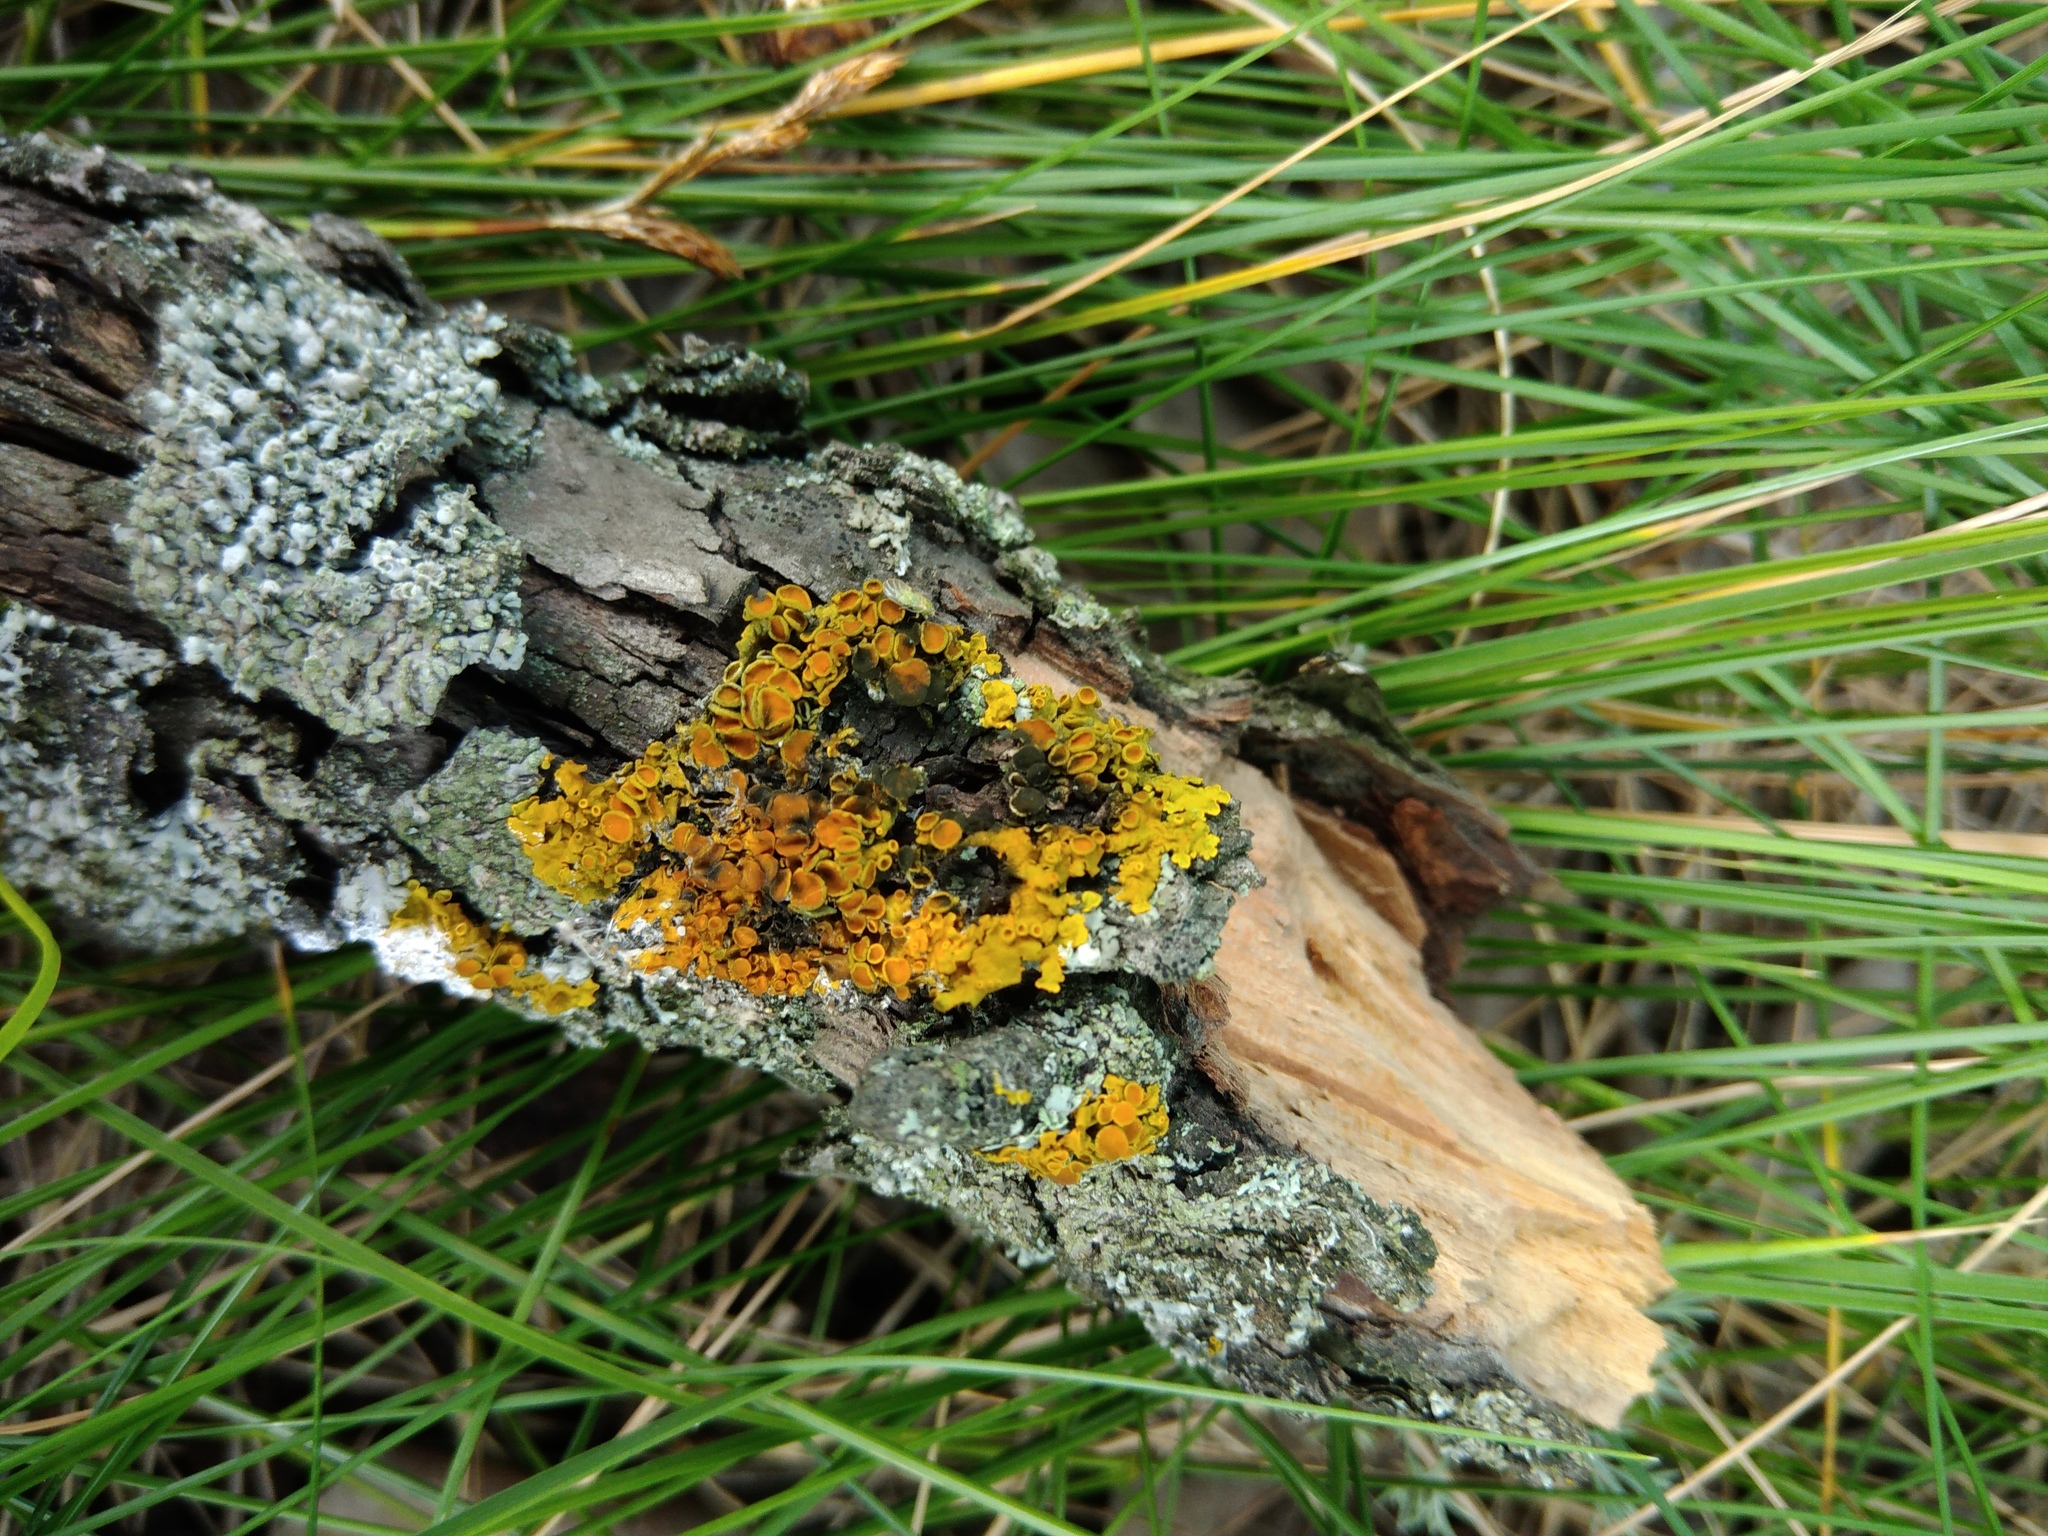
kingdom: Fungi
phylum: Ascomycota
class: Dothideomycetes
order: Mycosphaerellales
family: Teratosphaeriaceae
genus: Xanthoriicola
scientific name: Xanthoriicola physciae
